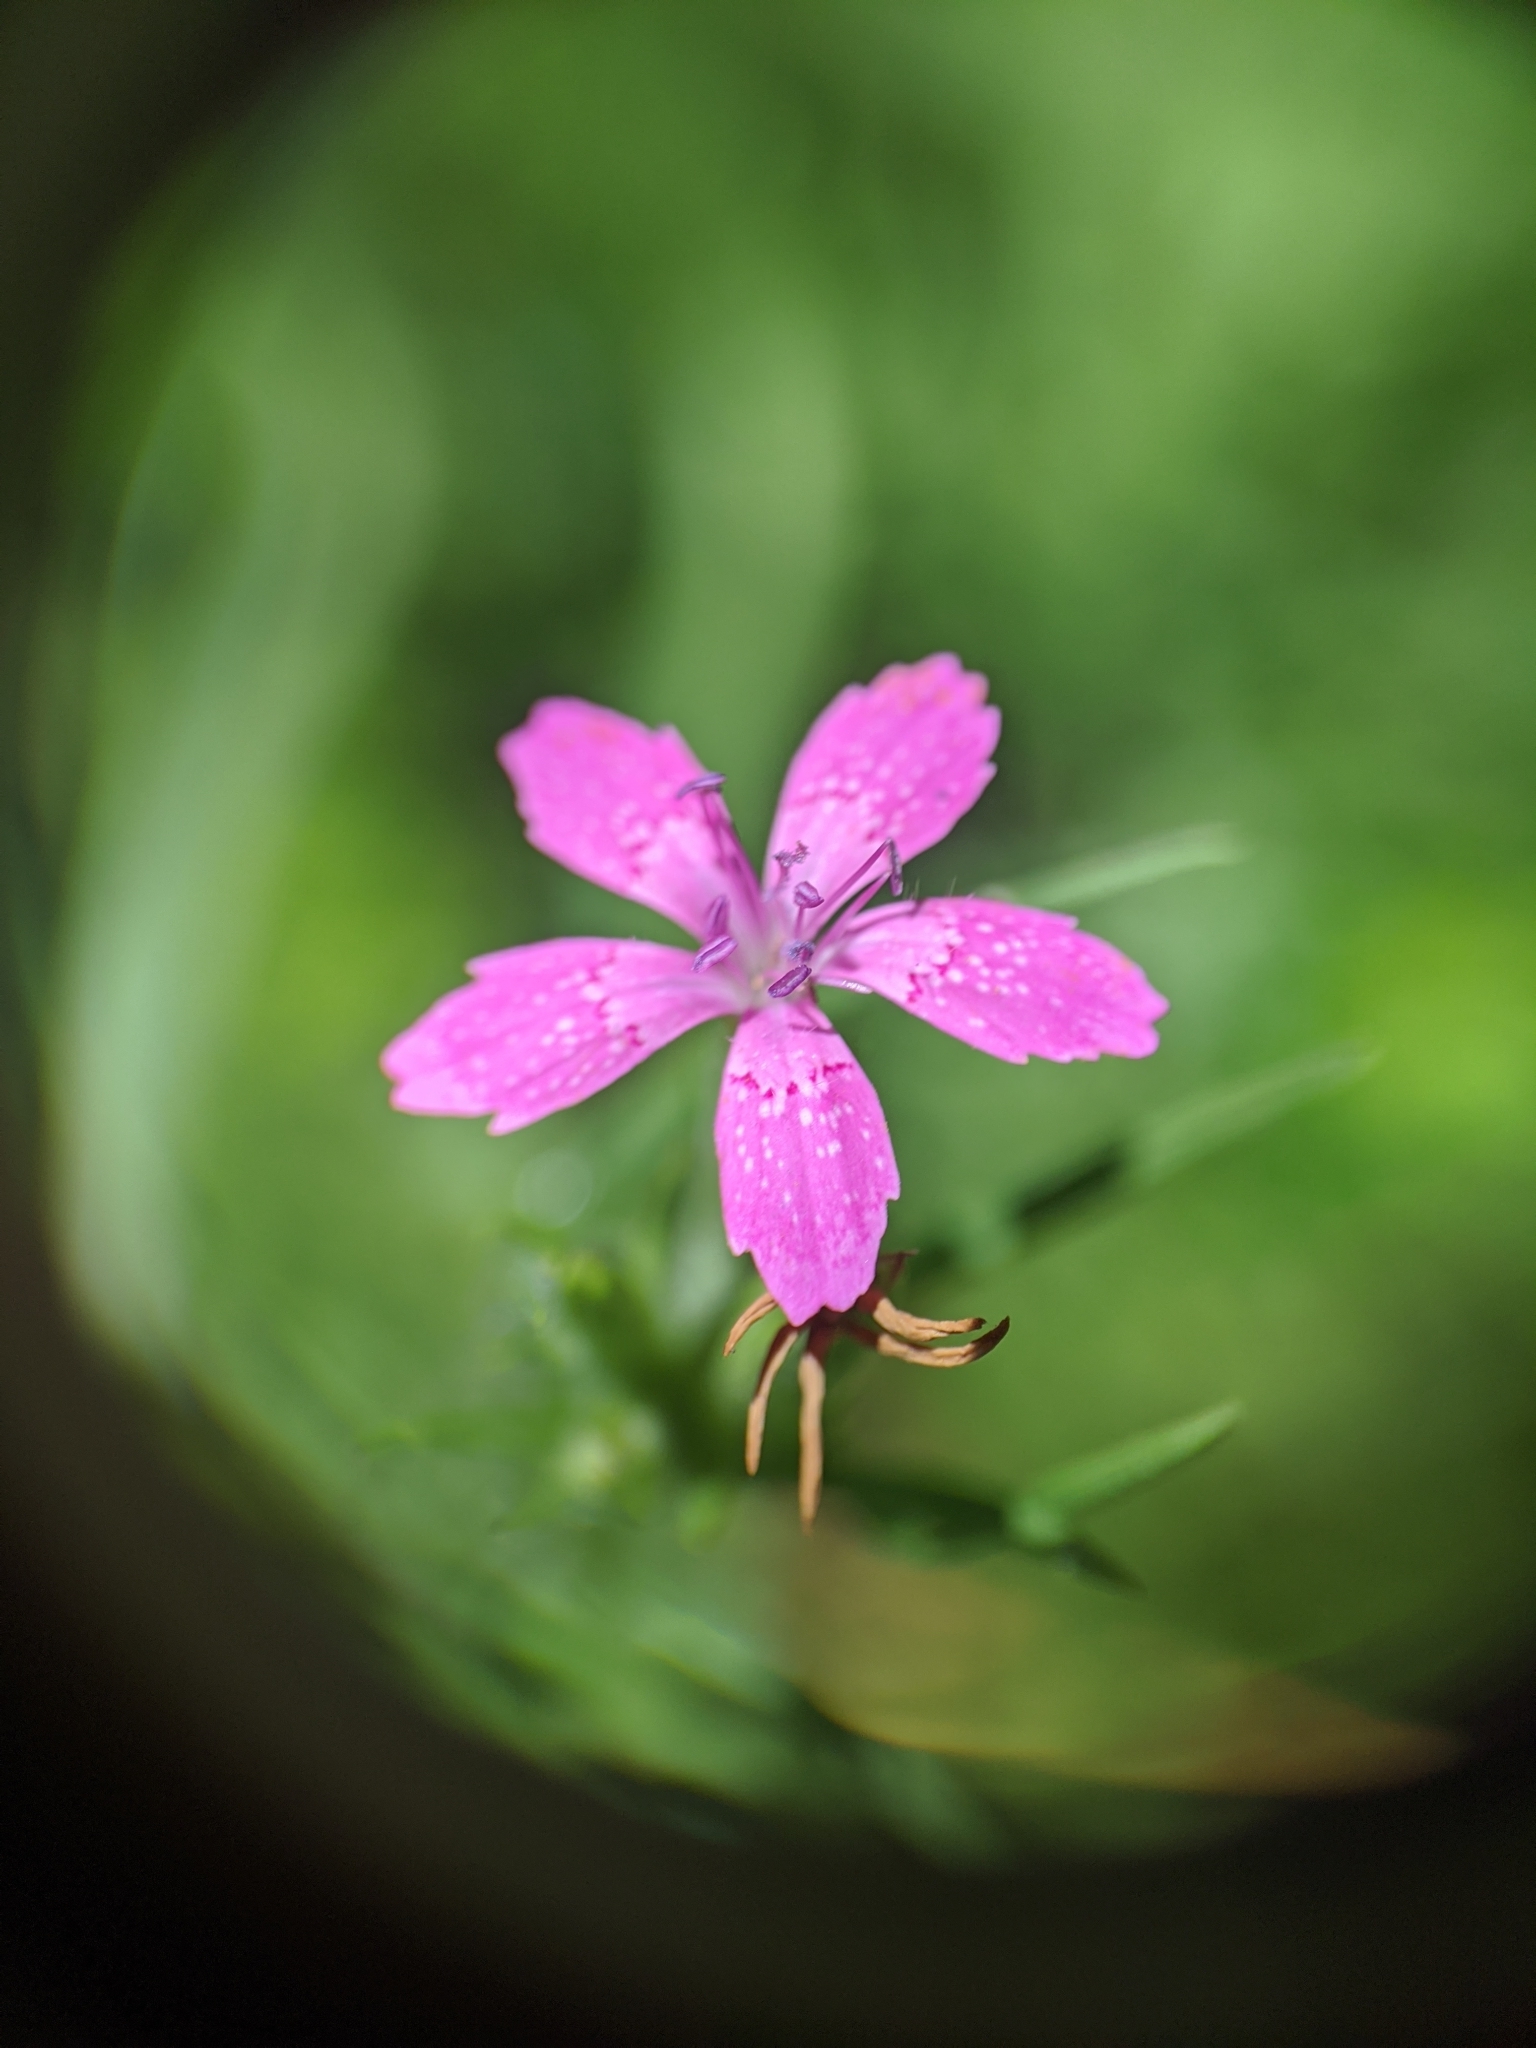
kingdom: Plantae
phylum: Tracheophyta
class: Magnoliopsida
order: Caryophyllales
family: Caryophyllaceae
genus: Dianthus
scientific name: Dianthus armeria
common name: Deptford pink
